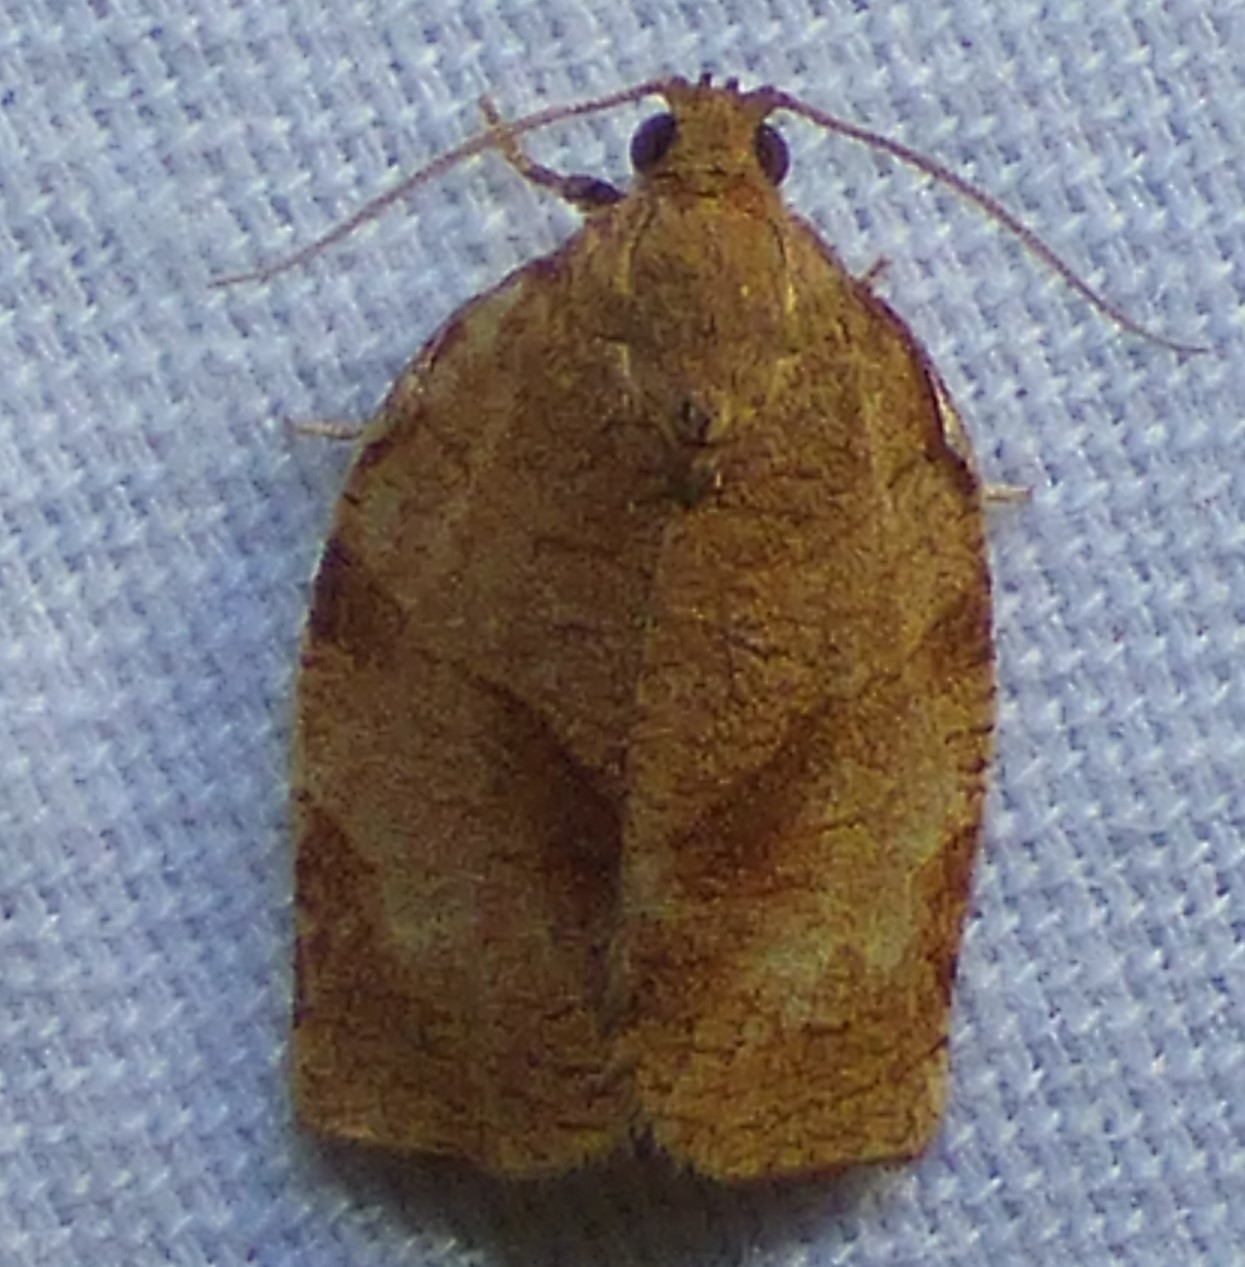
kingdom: Animalia
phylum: Arthropoda
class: Insecta
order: Lepidoptera
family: Tortricidae
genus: Choristoneura
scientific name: Choristoneura rosaceana
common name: Oblique-banded leafroller moth
